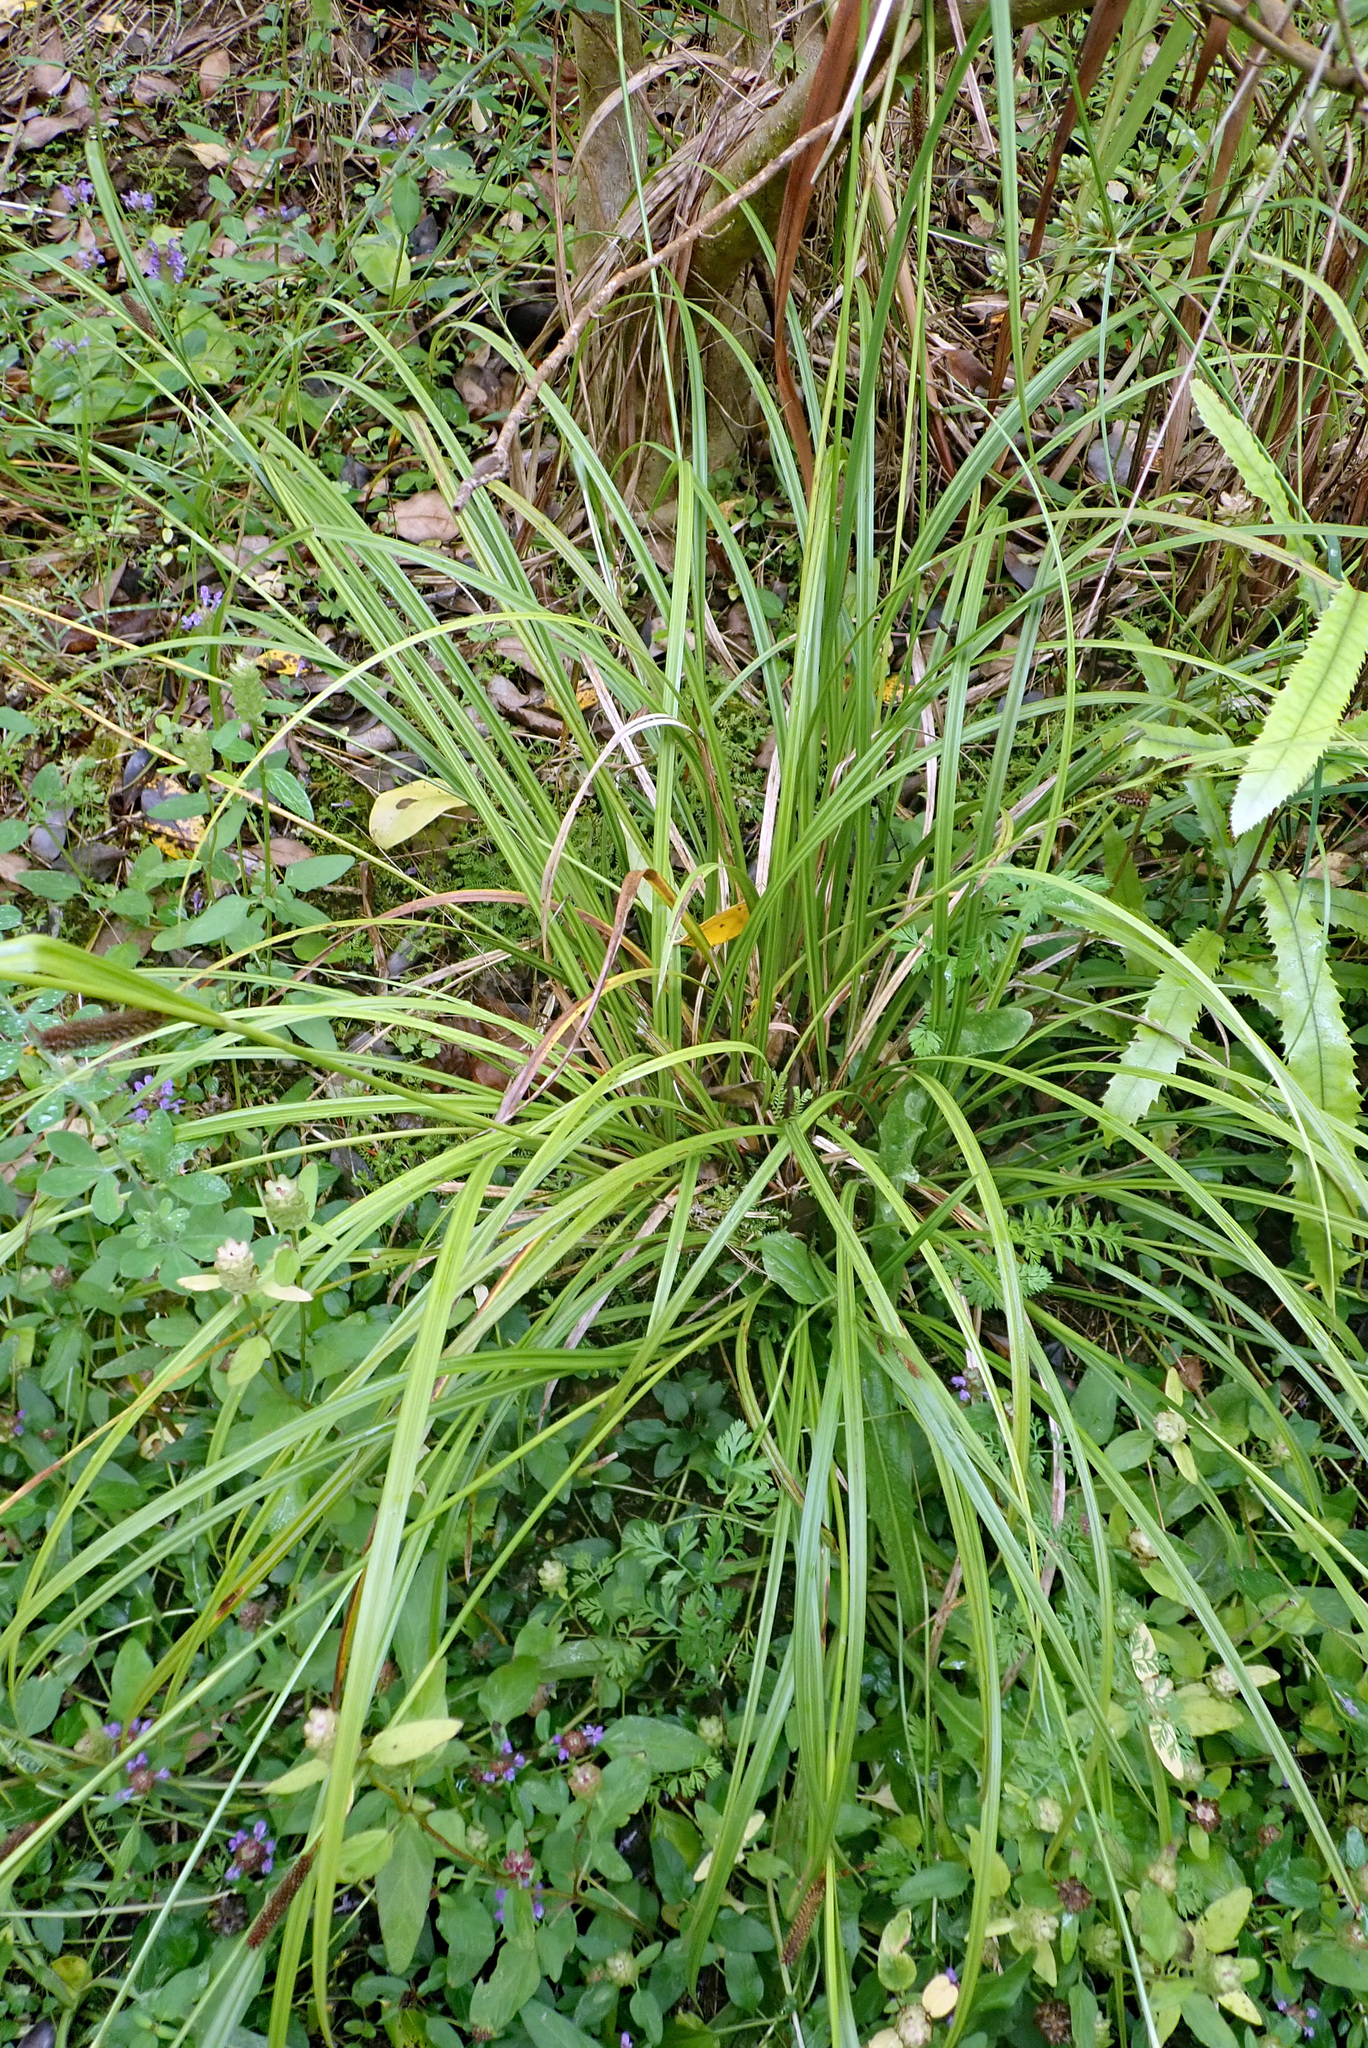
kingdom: Plantae
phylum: Tracheophyta
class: Liliopsida
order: Poales
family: Cyperaceae
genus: Carex
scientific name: Carex lambertiana
